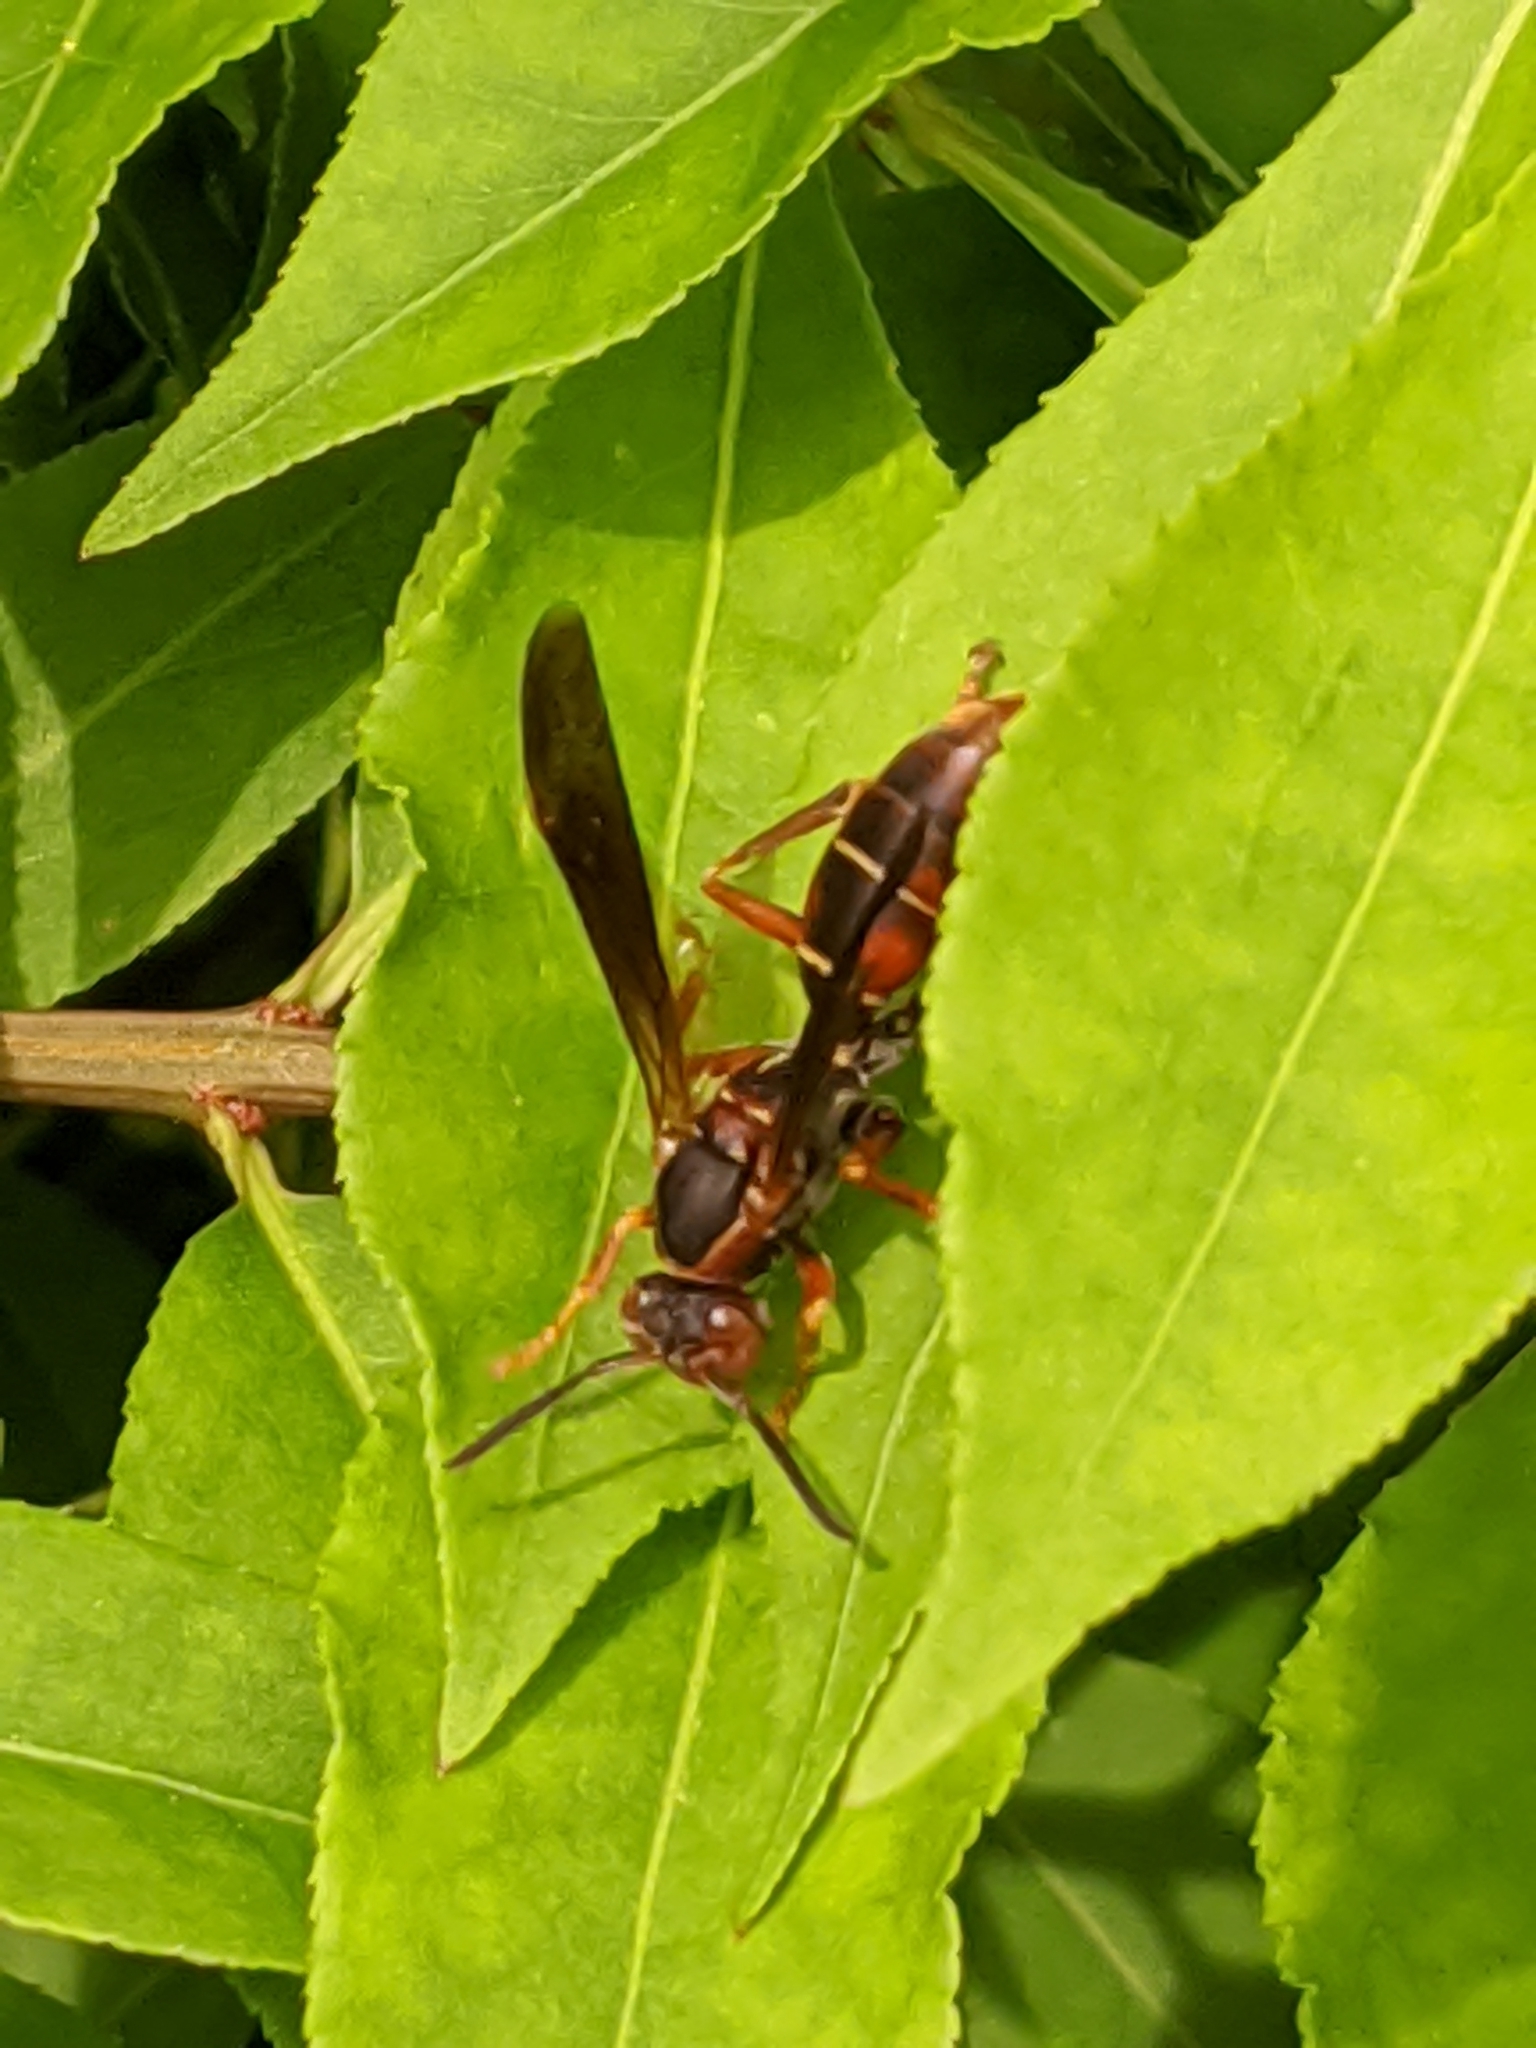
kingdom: Animalia
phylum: Arthropoda
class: Insecta
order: Hymenoptera
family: Eumenidae
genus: Polistes
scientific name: Polistes fuscatus
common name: Dark paper wasp
